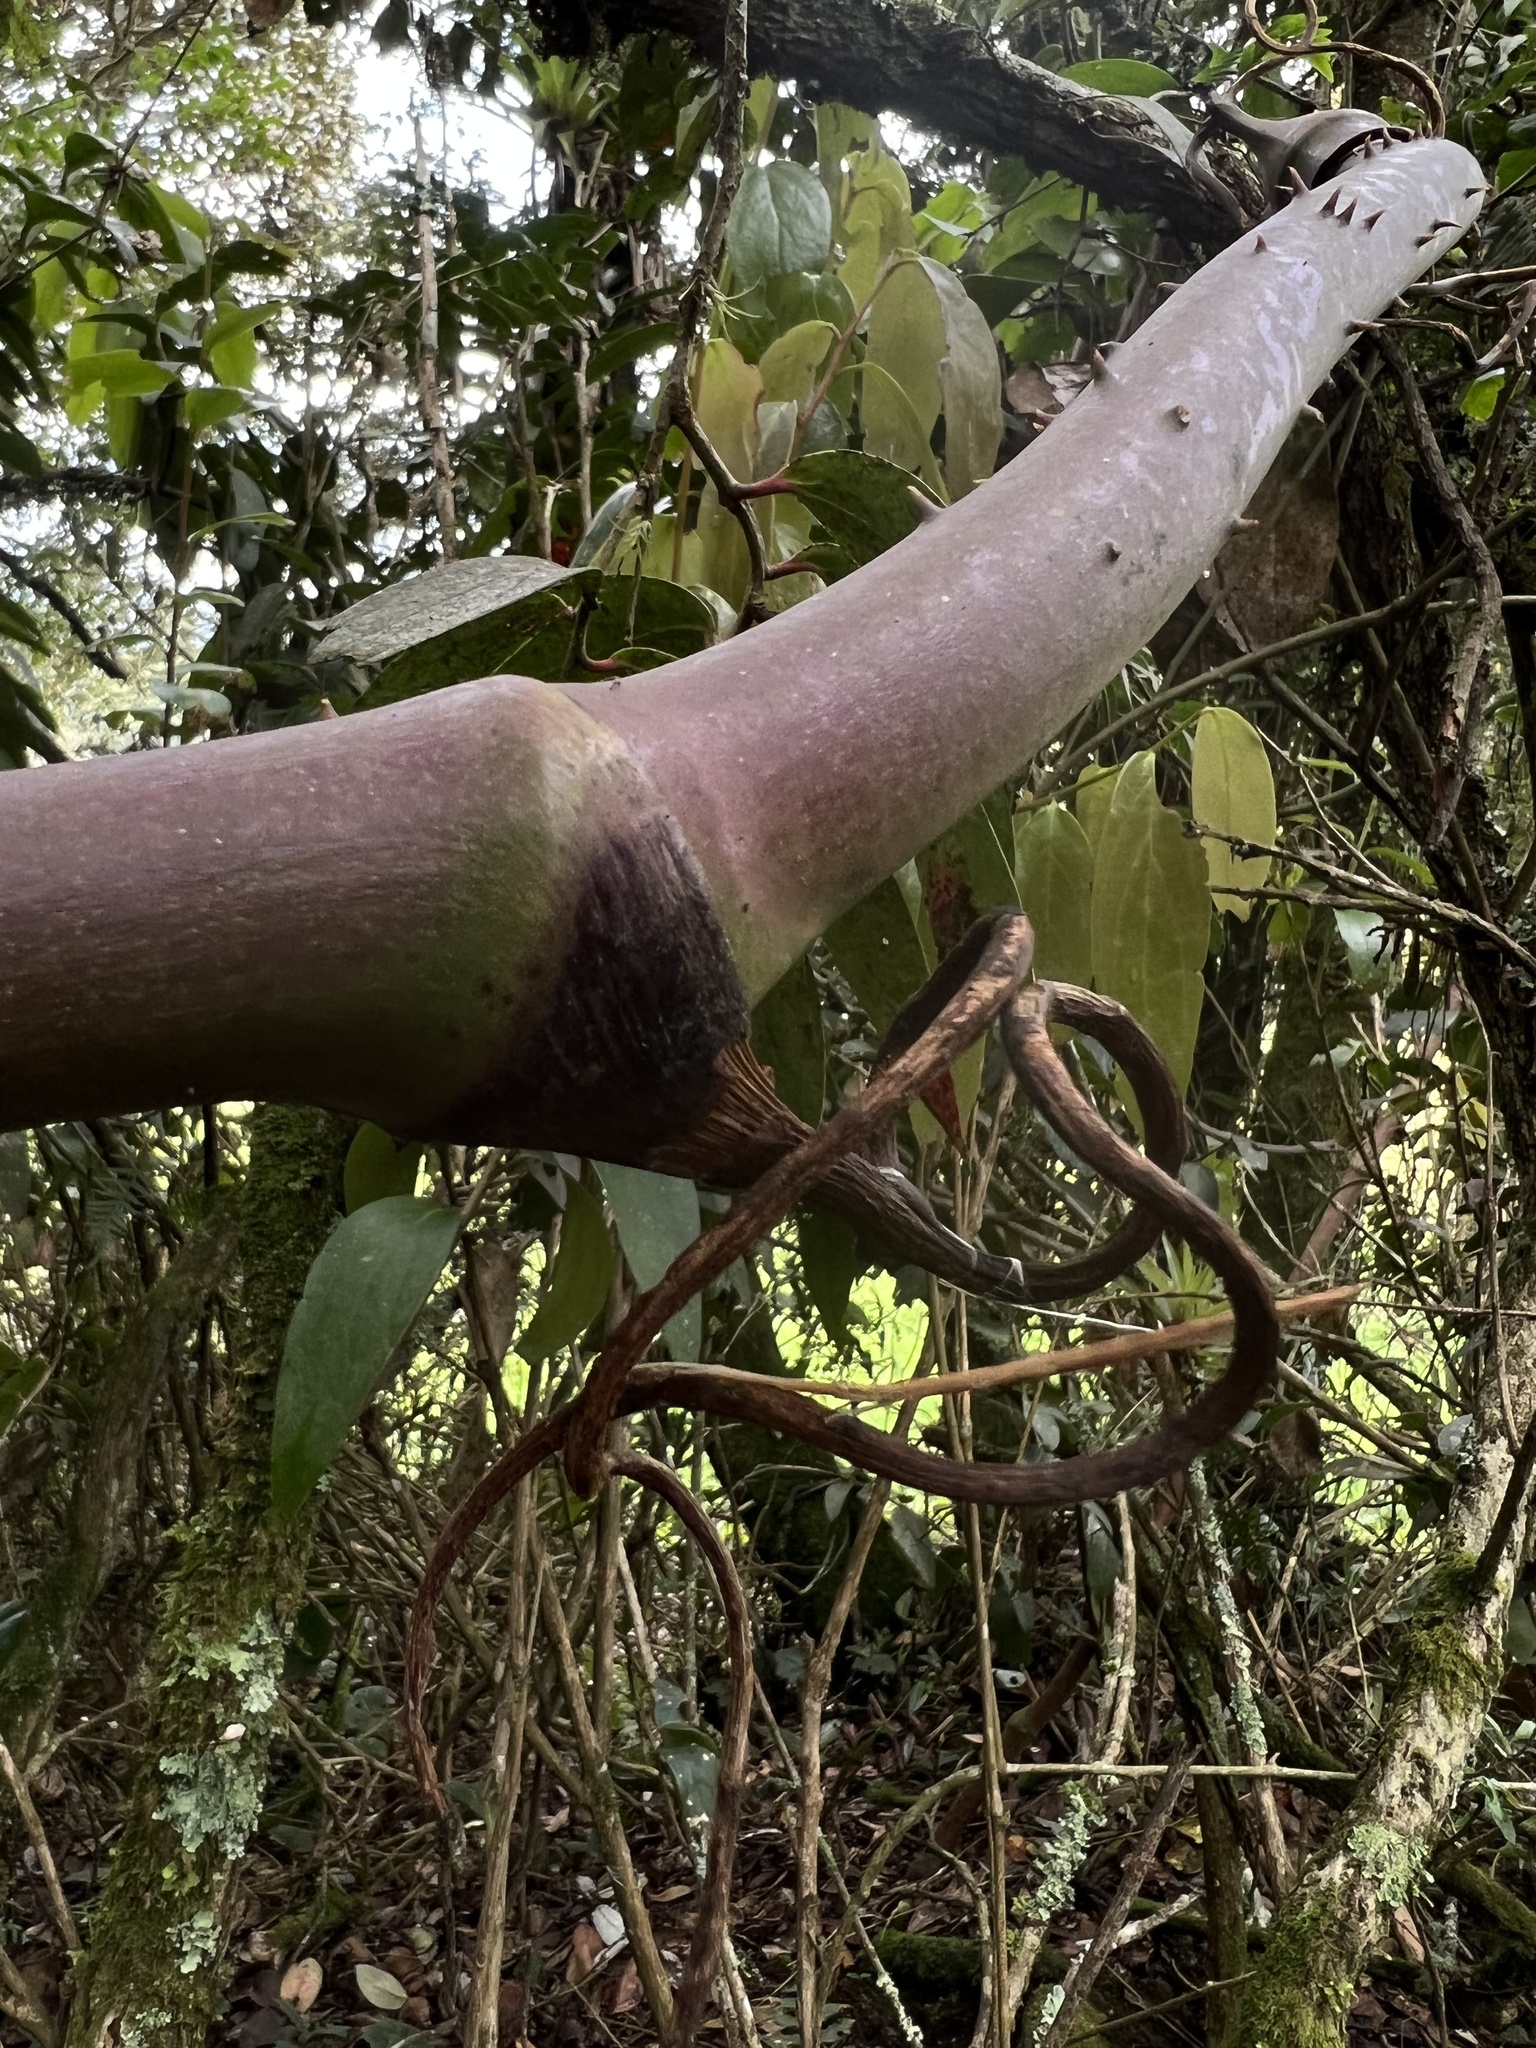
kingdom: Plantae
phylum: Tracheophyta
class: Liliopsida
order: Liliales
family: Smilacaceae
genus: Smilax
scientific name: Smilax domingensis
